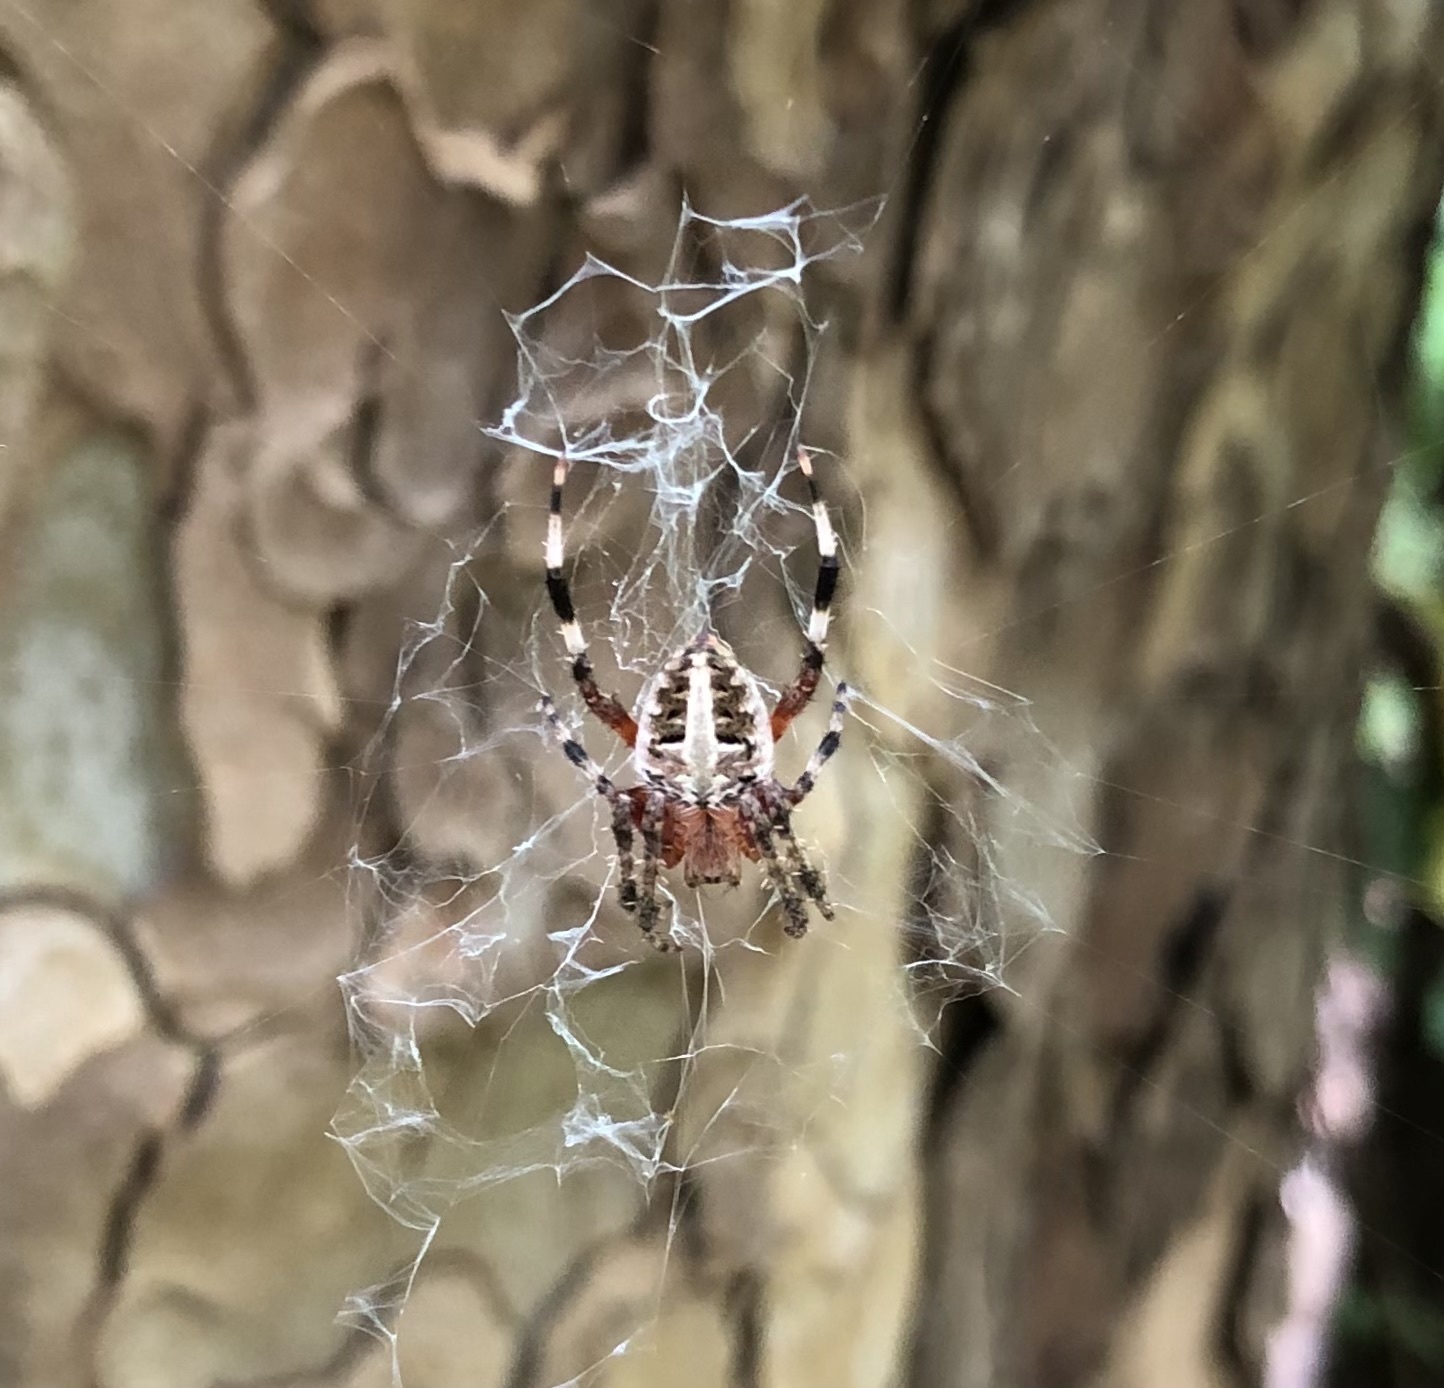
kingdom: Animalia
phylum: Arthropoda
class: Arachnida
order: Araneae
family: Araneidae
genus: Neoscona
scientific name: Neoscona domiciliorum
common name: Red-femured spotted orbweaver
